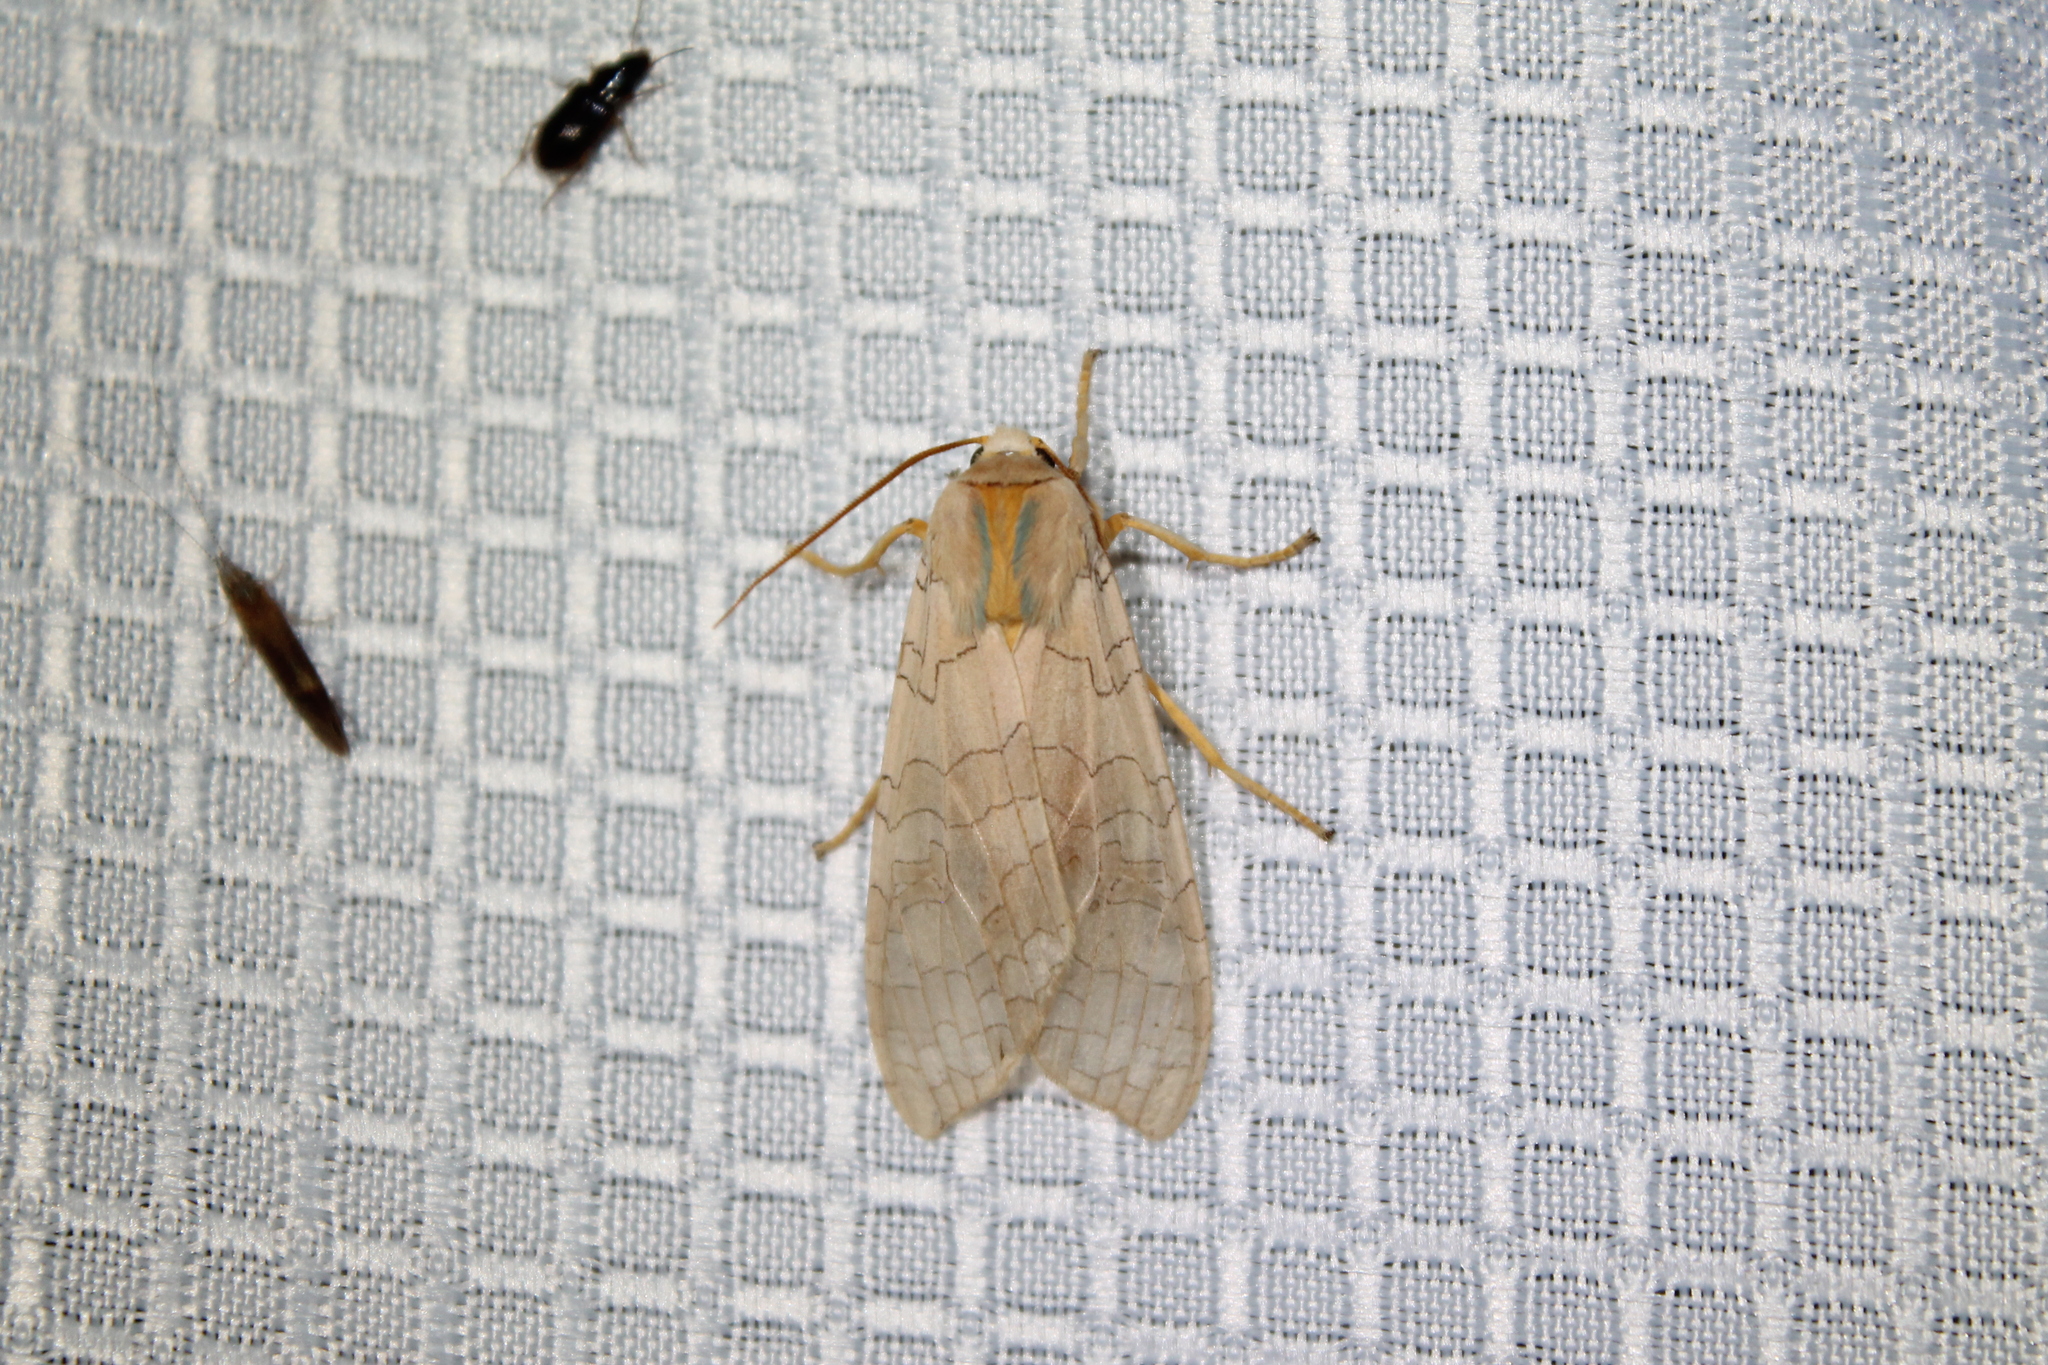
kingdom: Animalia
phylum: Arthropoda
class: Insecta
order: Lepidoptera
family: Erebidae
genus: Halysidota
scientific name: Halysidota
